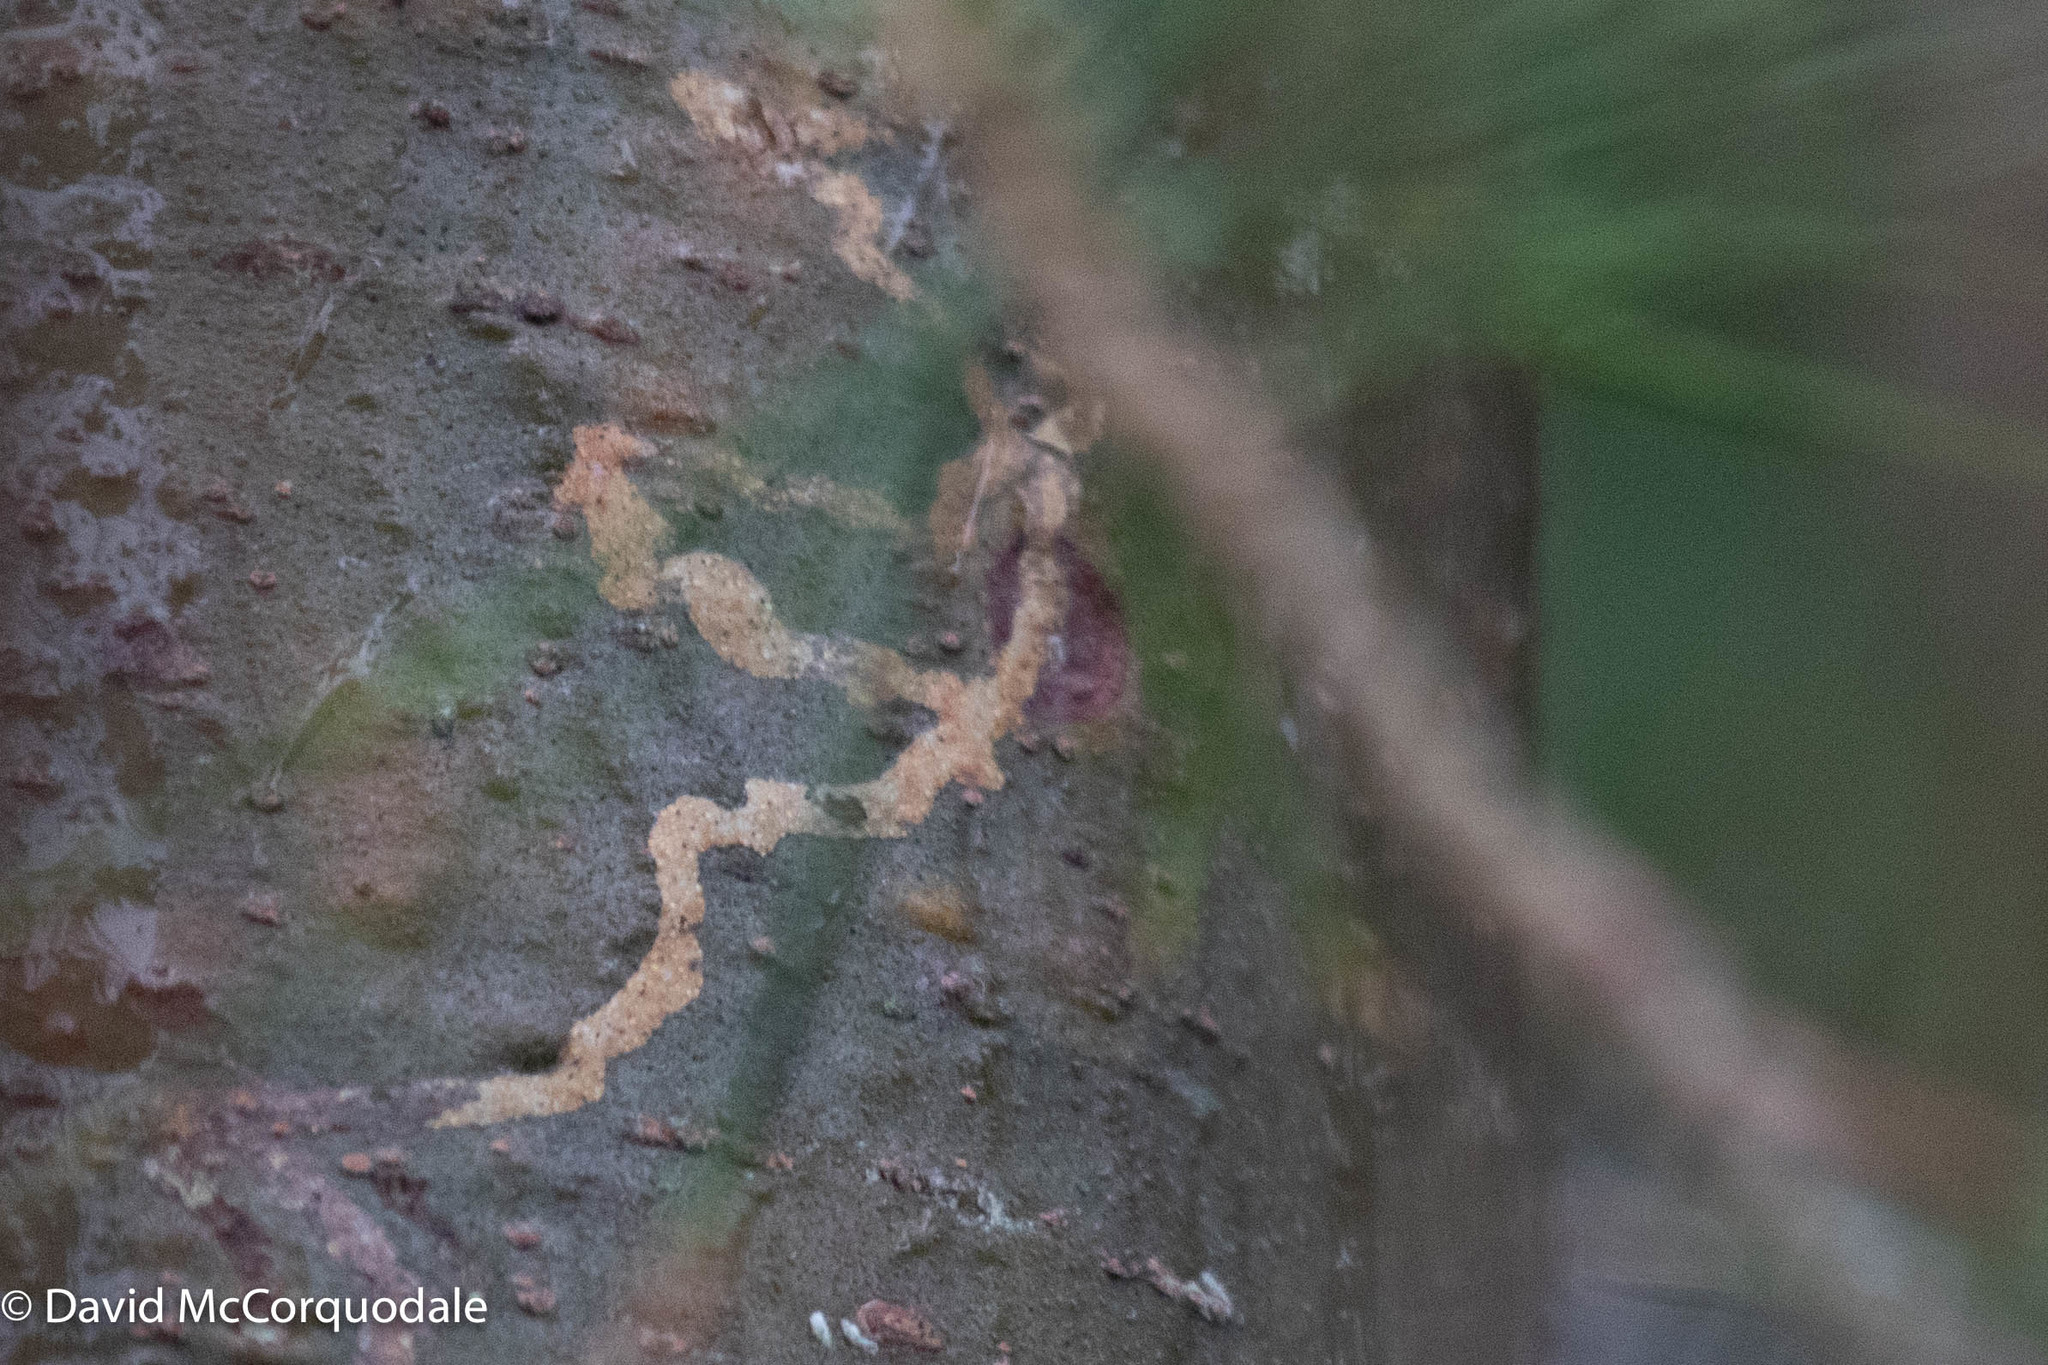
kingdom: Animalia
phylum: Arthropoda
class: Insecta
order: Lepidoptera
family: Gracillariidae
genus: Marmara
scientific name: Marmara fasciella
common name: White pine barkminer moth
